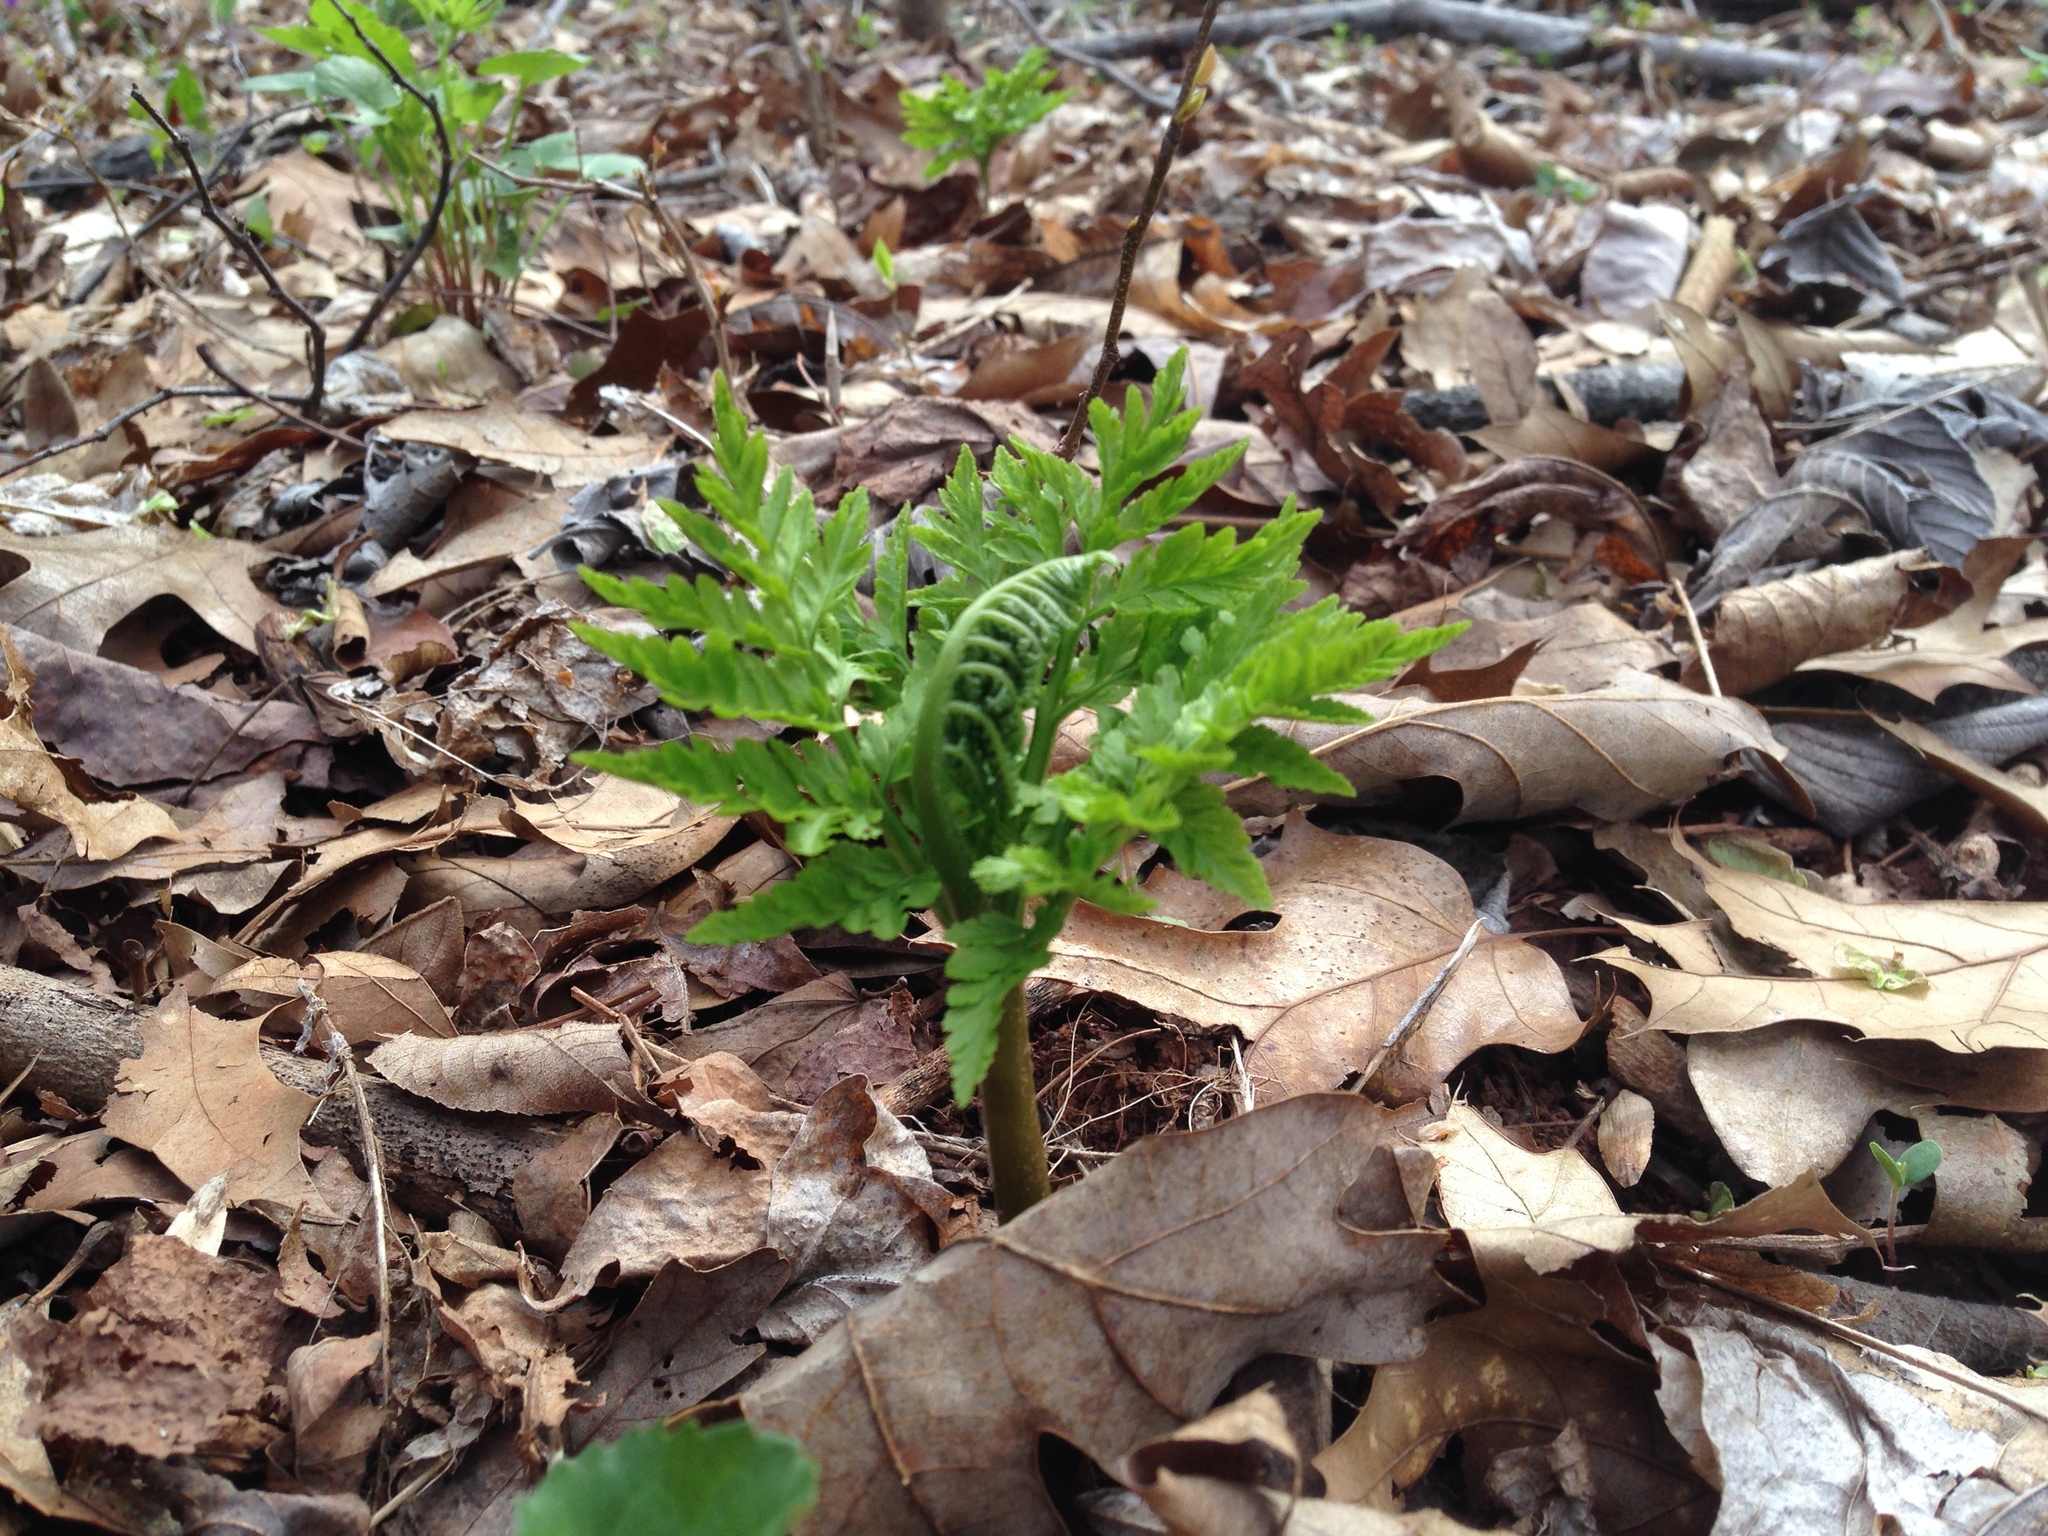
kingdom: Plantae
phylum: Tracheophyta
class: Polypodiopsida
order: Ophioglossales
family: Ophioglossaceae
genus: Botrypus
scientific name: Botrypus virginianus
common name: Common grapefern
